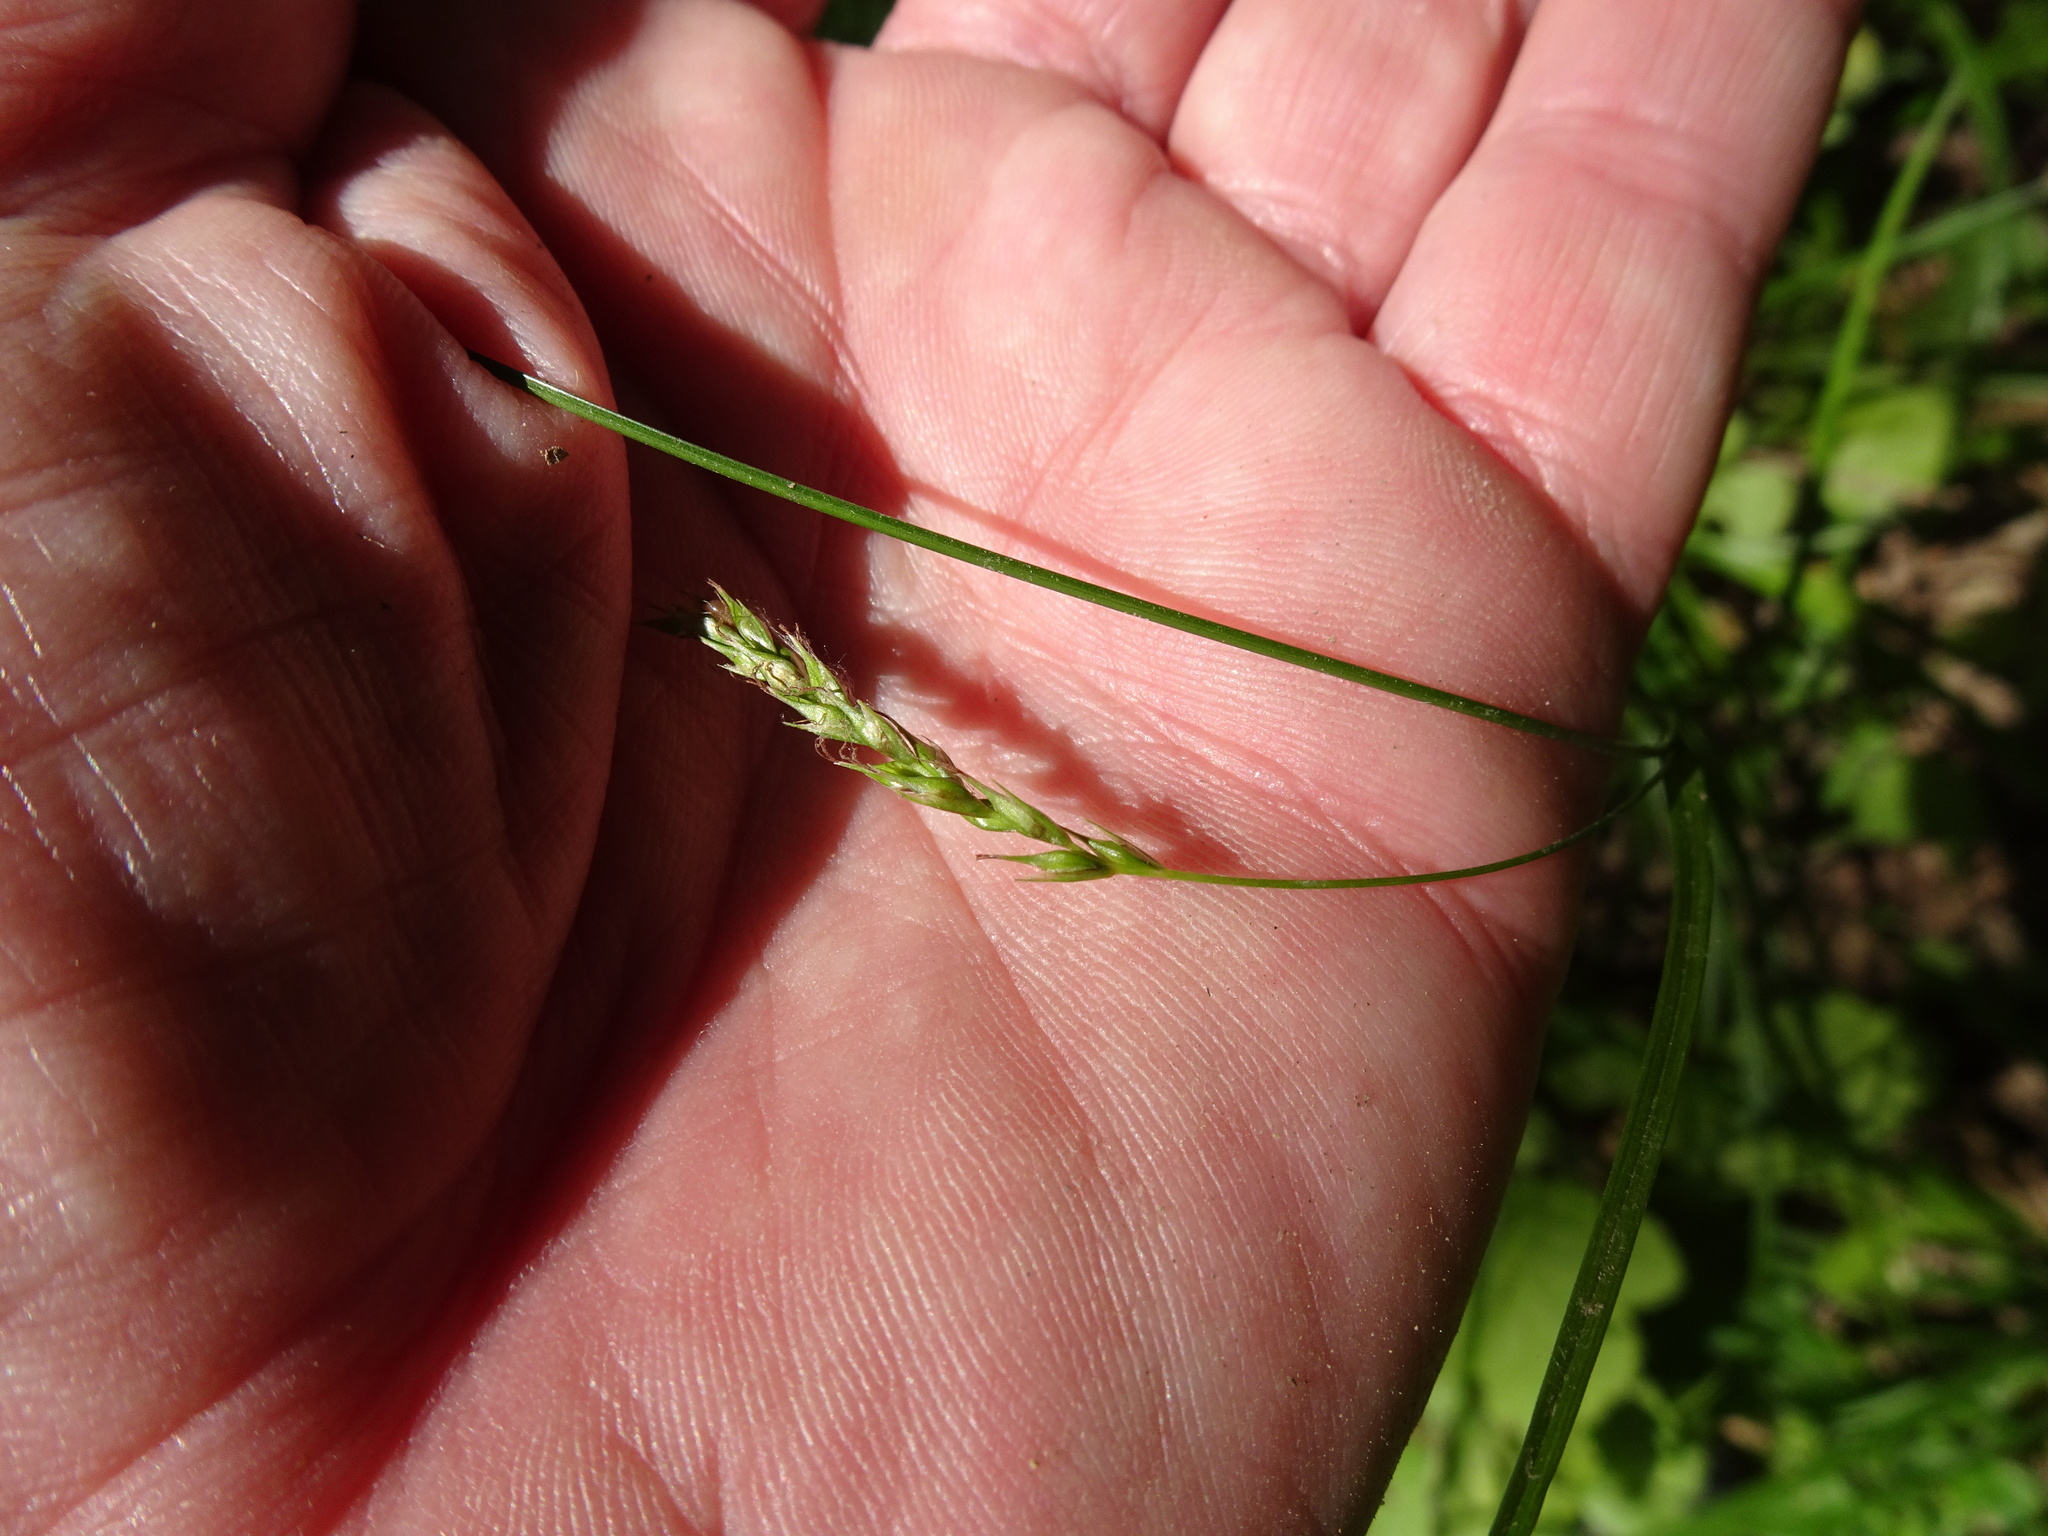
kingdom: Plantae
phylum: Tracheophyta
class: Liliopsida
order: Poales
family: Cyperaceae
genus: Carex
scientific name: Carex sylvatica
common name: Wood-sedge
